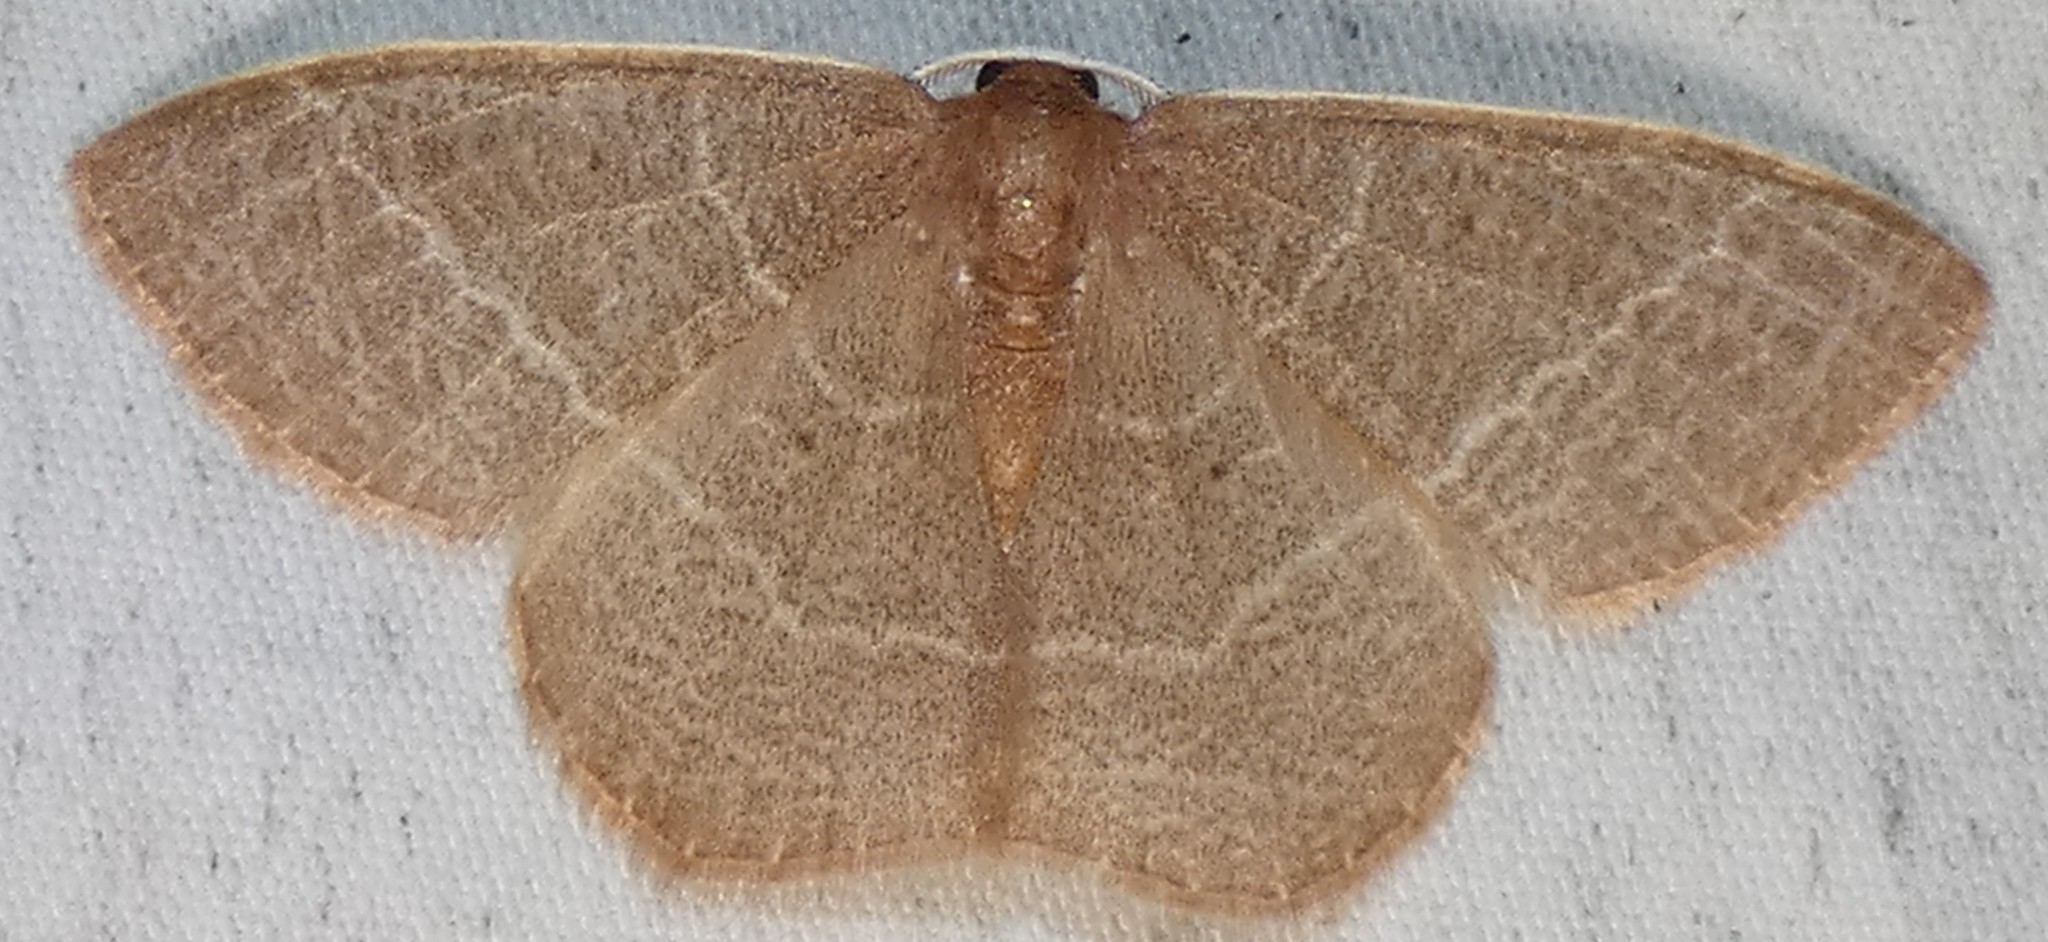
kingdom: Animalia
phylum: Arthropoda
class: Insecta
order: Lepidoptera
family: Geometridae
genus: Nemoria
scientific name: Nemoria bistriaria
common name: Red-fringed emerald
